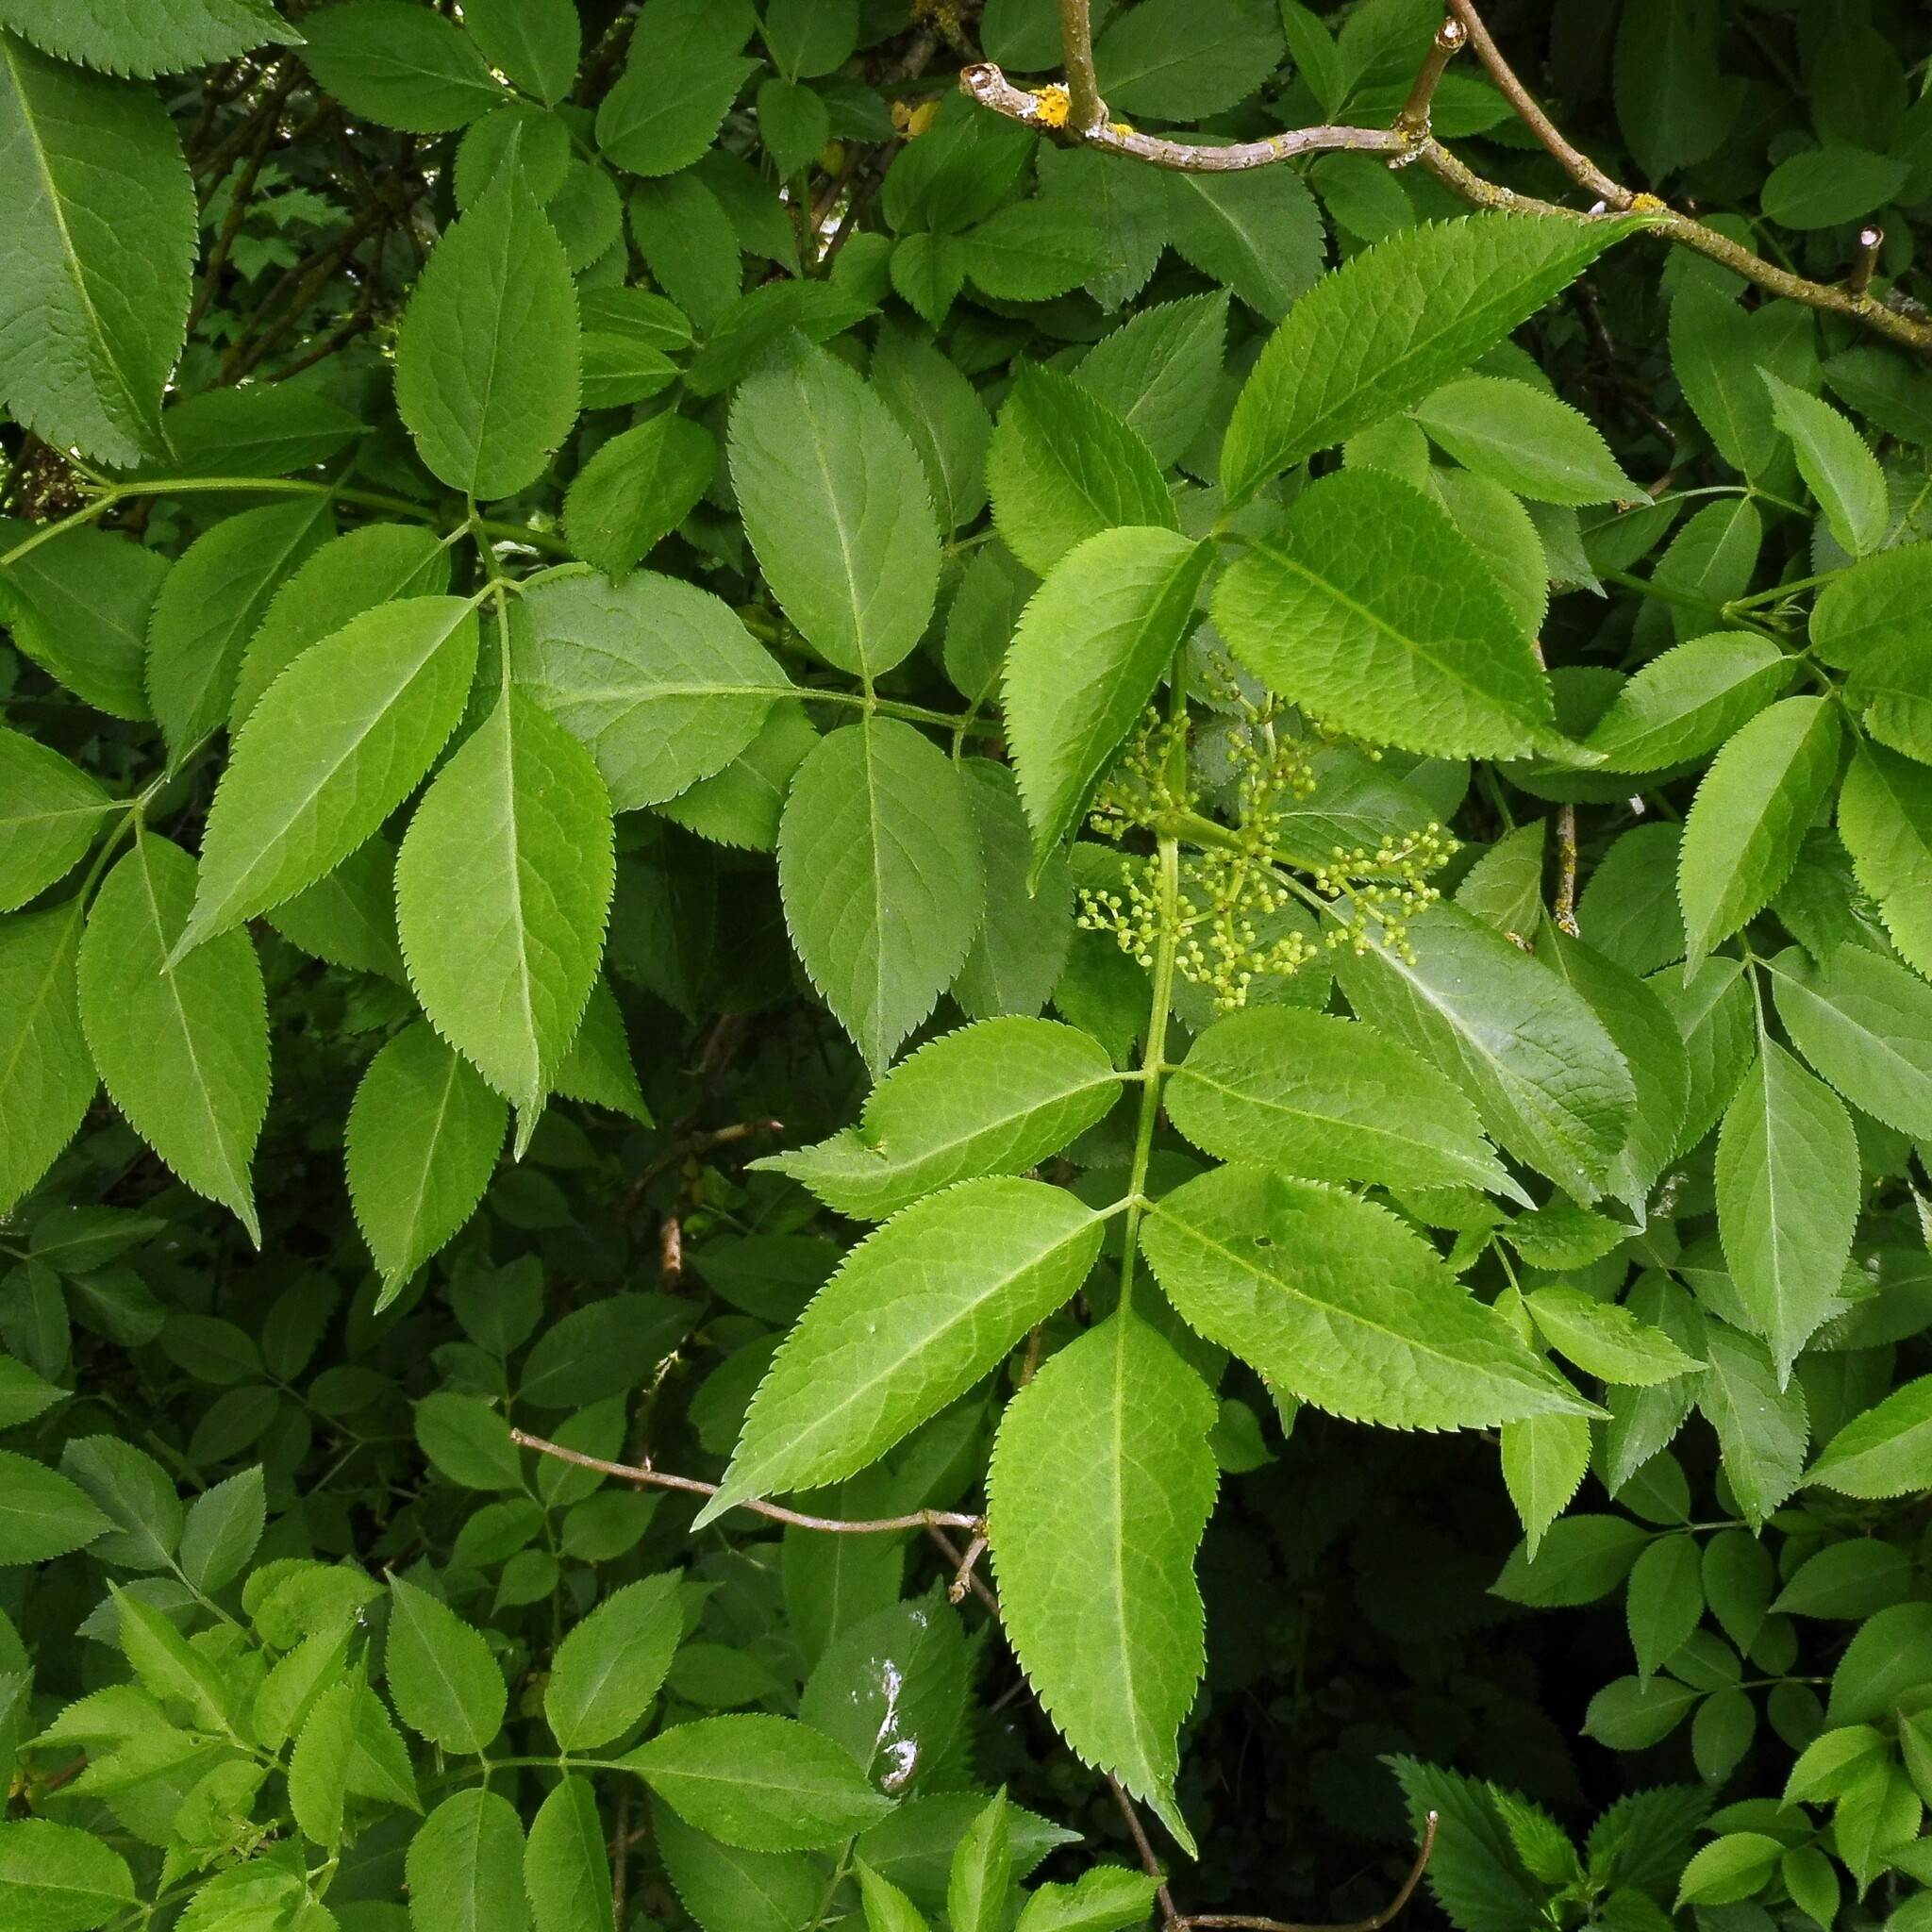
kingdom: Plantae
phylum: Tracheophyta
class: Magnoliopsida
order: Dipsacales
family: Viburnaceae
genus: Sambucus
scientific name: Sambucus nigra
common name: Elder
